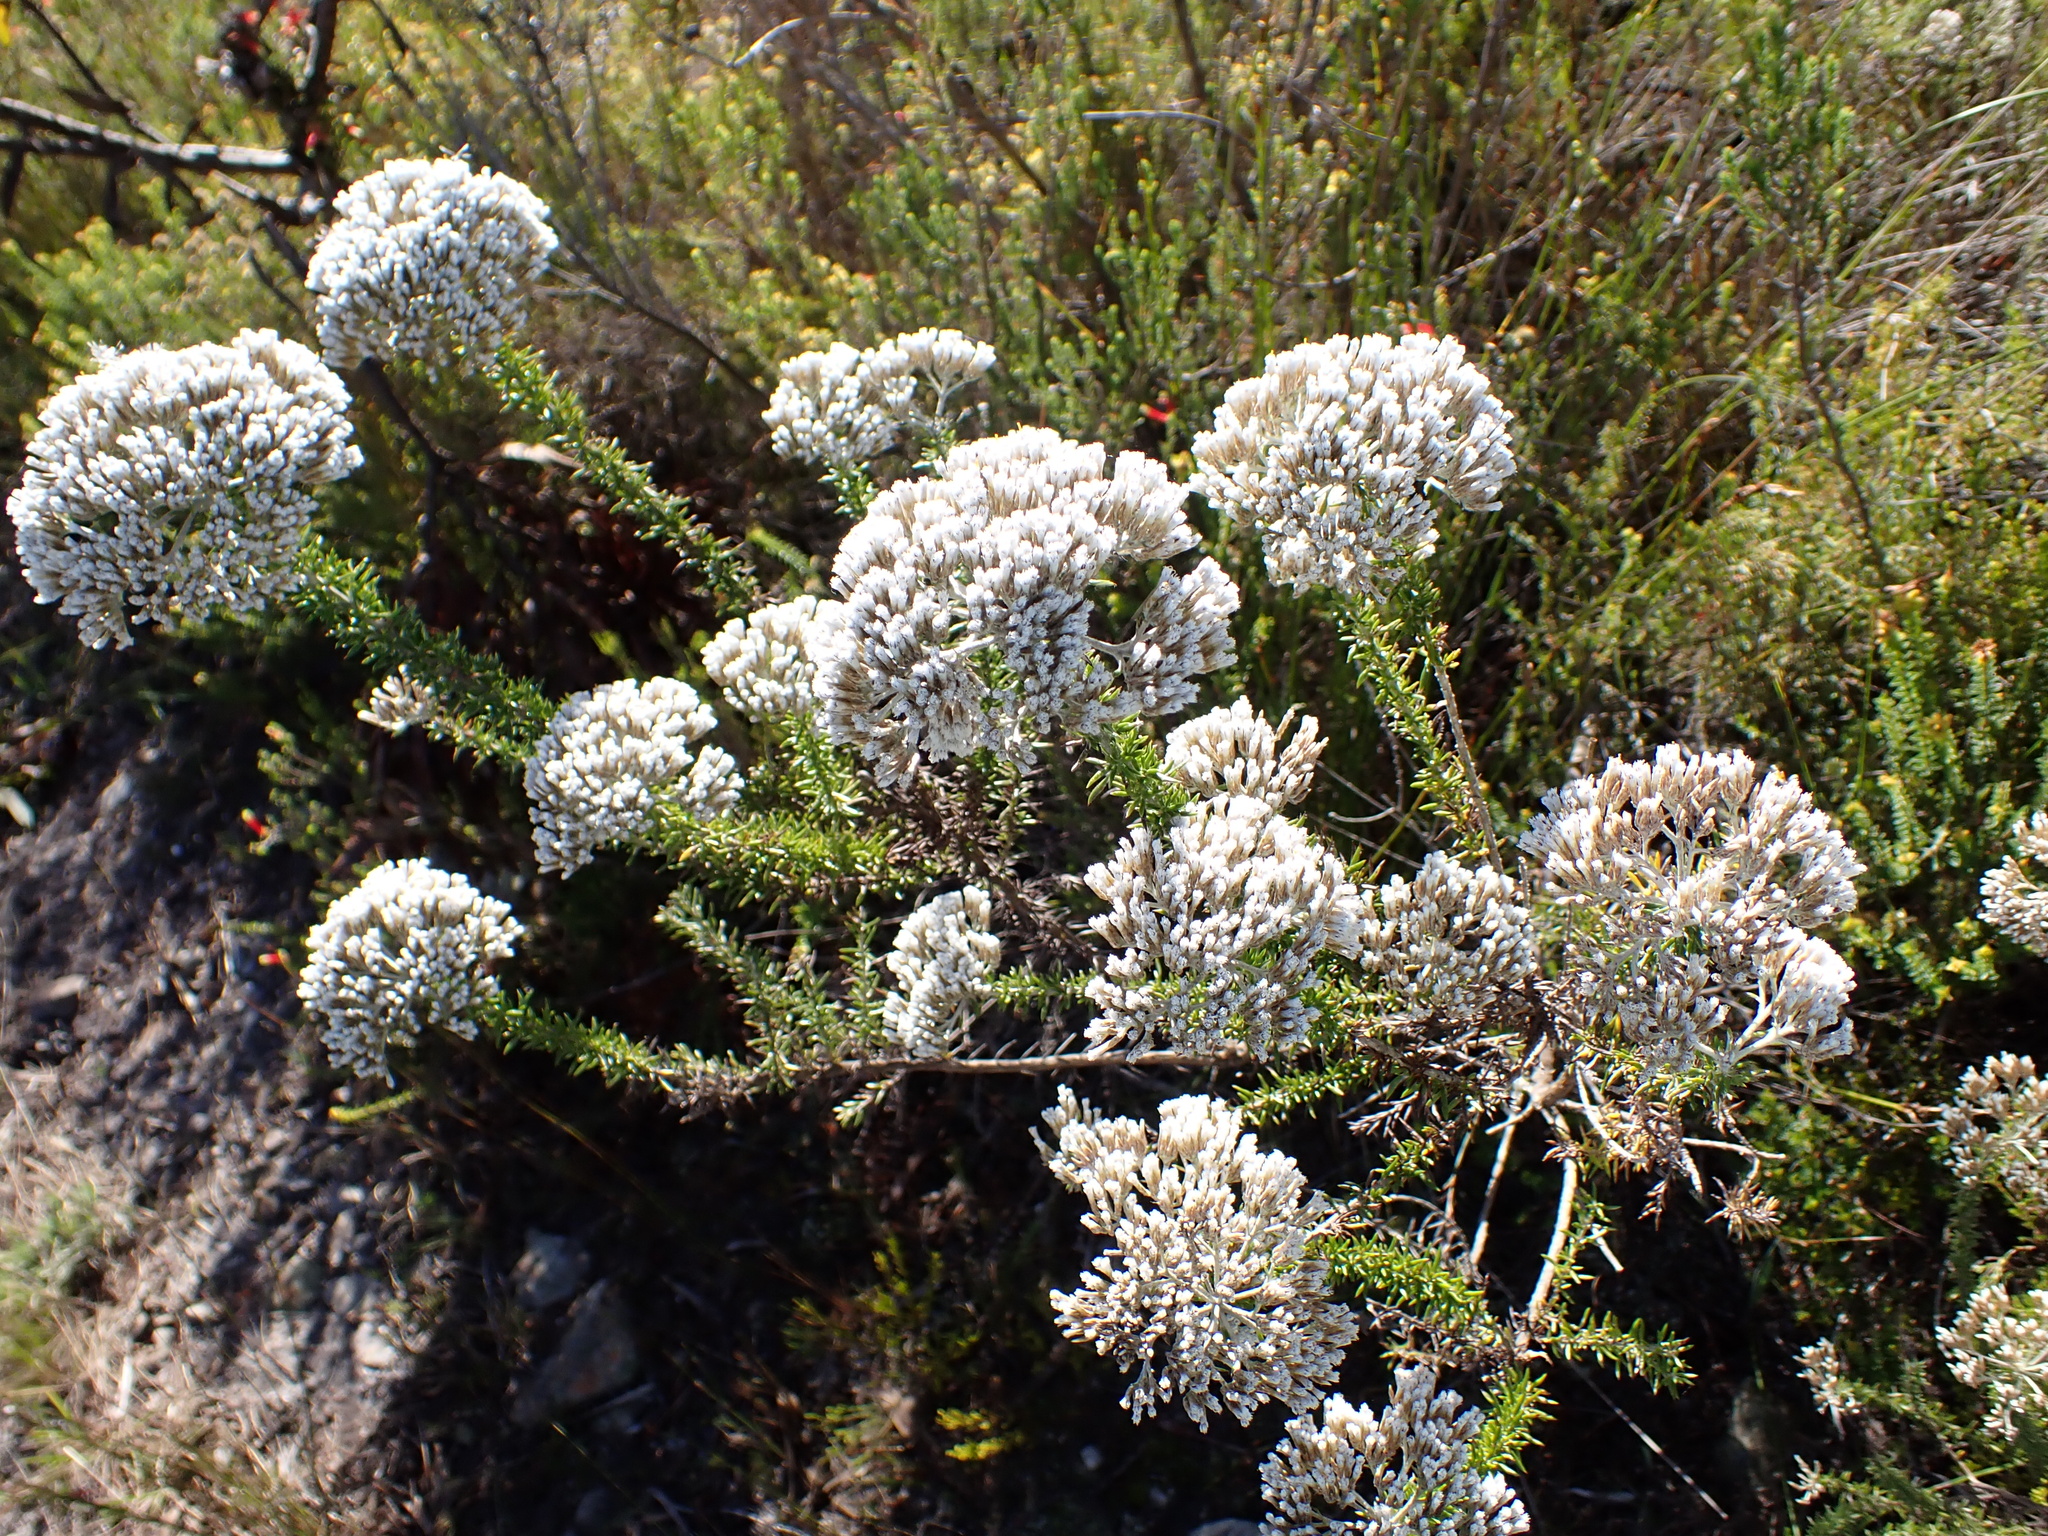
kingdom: Plantae
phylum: Tracheophyta
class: Magnoliopsida
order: Asterales
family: Asteraceae
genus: Metalasia
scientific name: Metalasia densa
